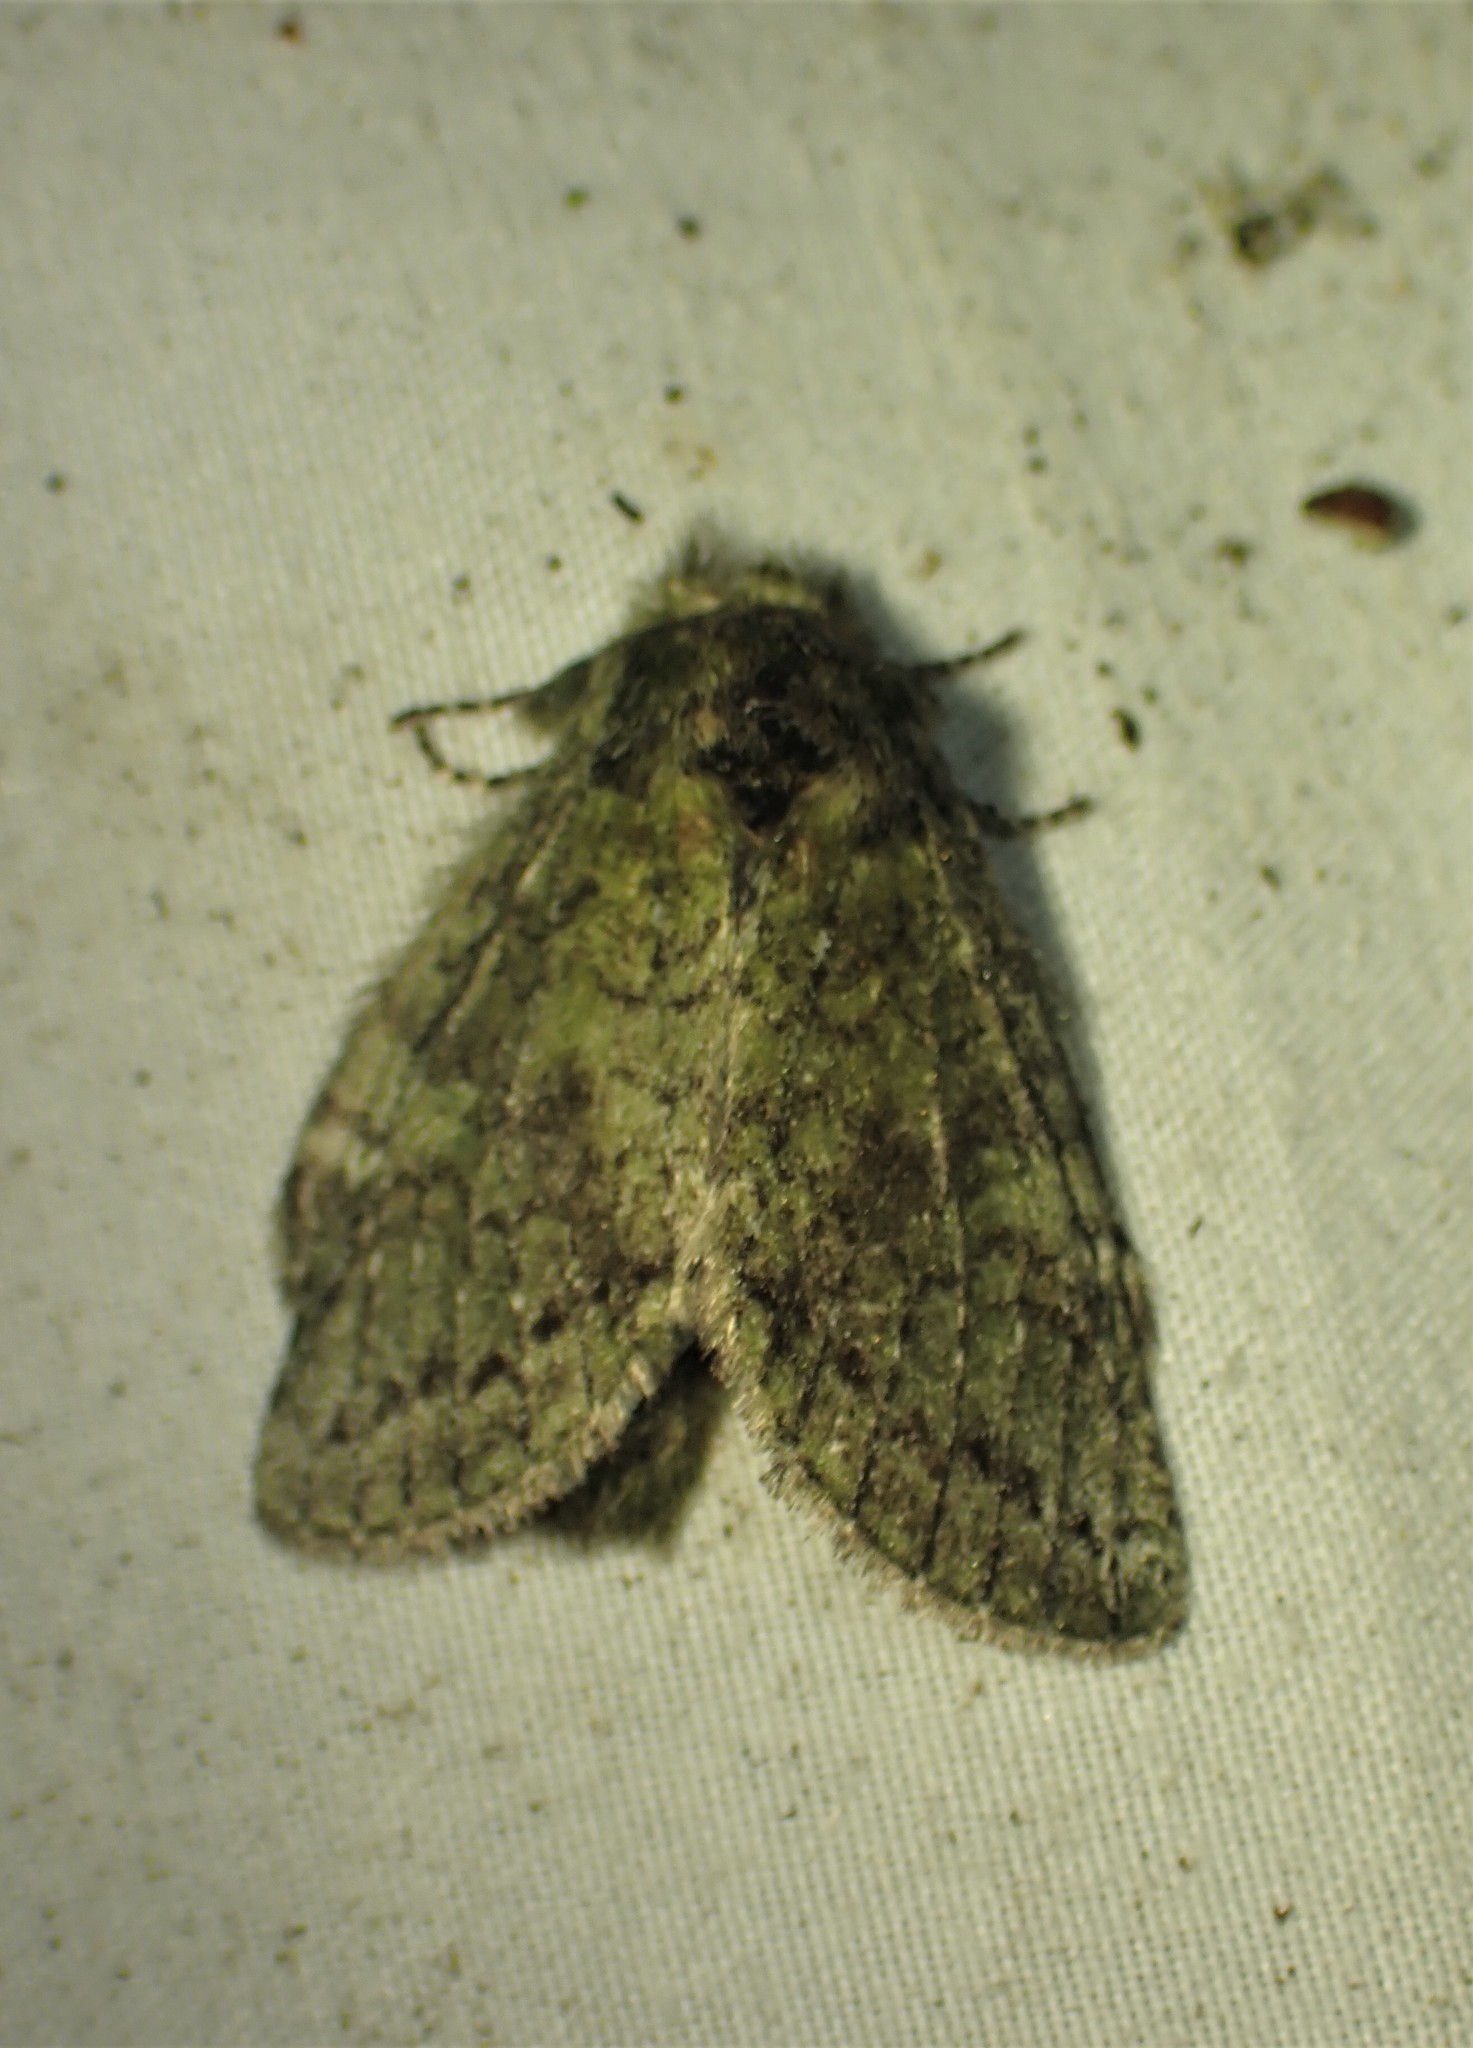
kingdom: Animalia
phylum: Arthropoda
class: Insecta
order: Lepidoptera
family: Notodontidae
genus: Disphragis
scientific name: Disphragis Cecrita guttivitta
